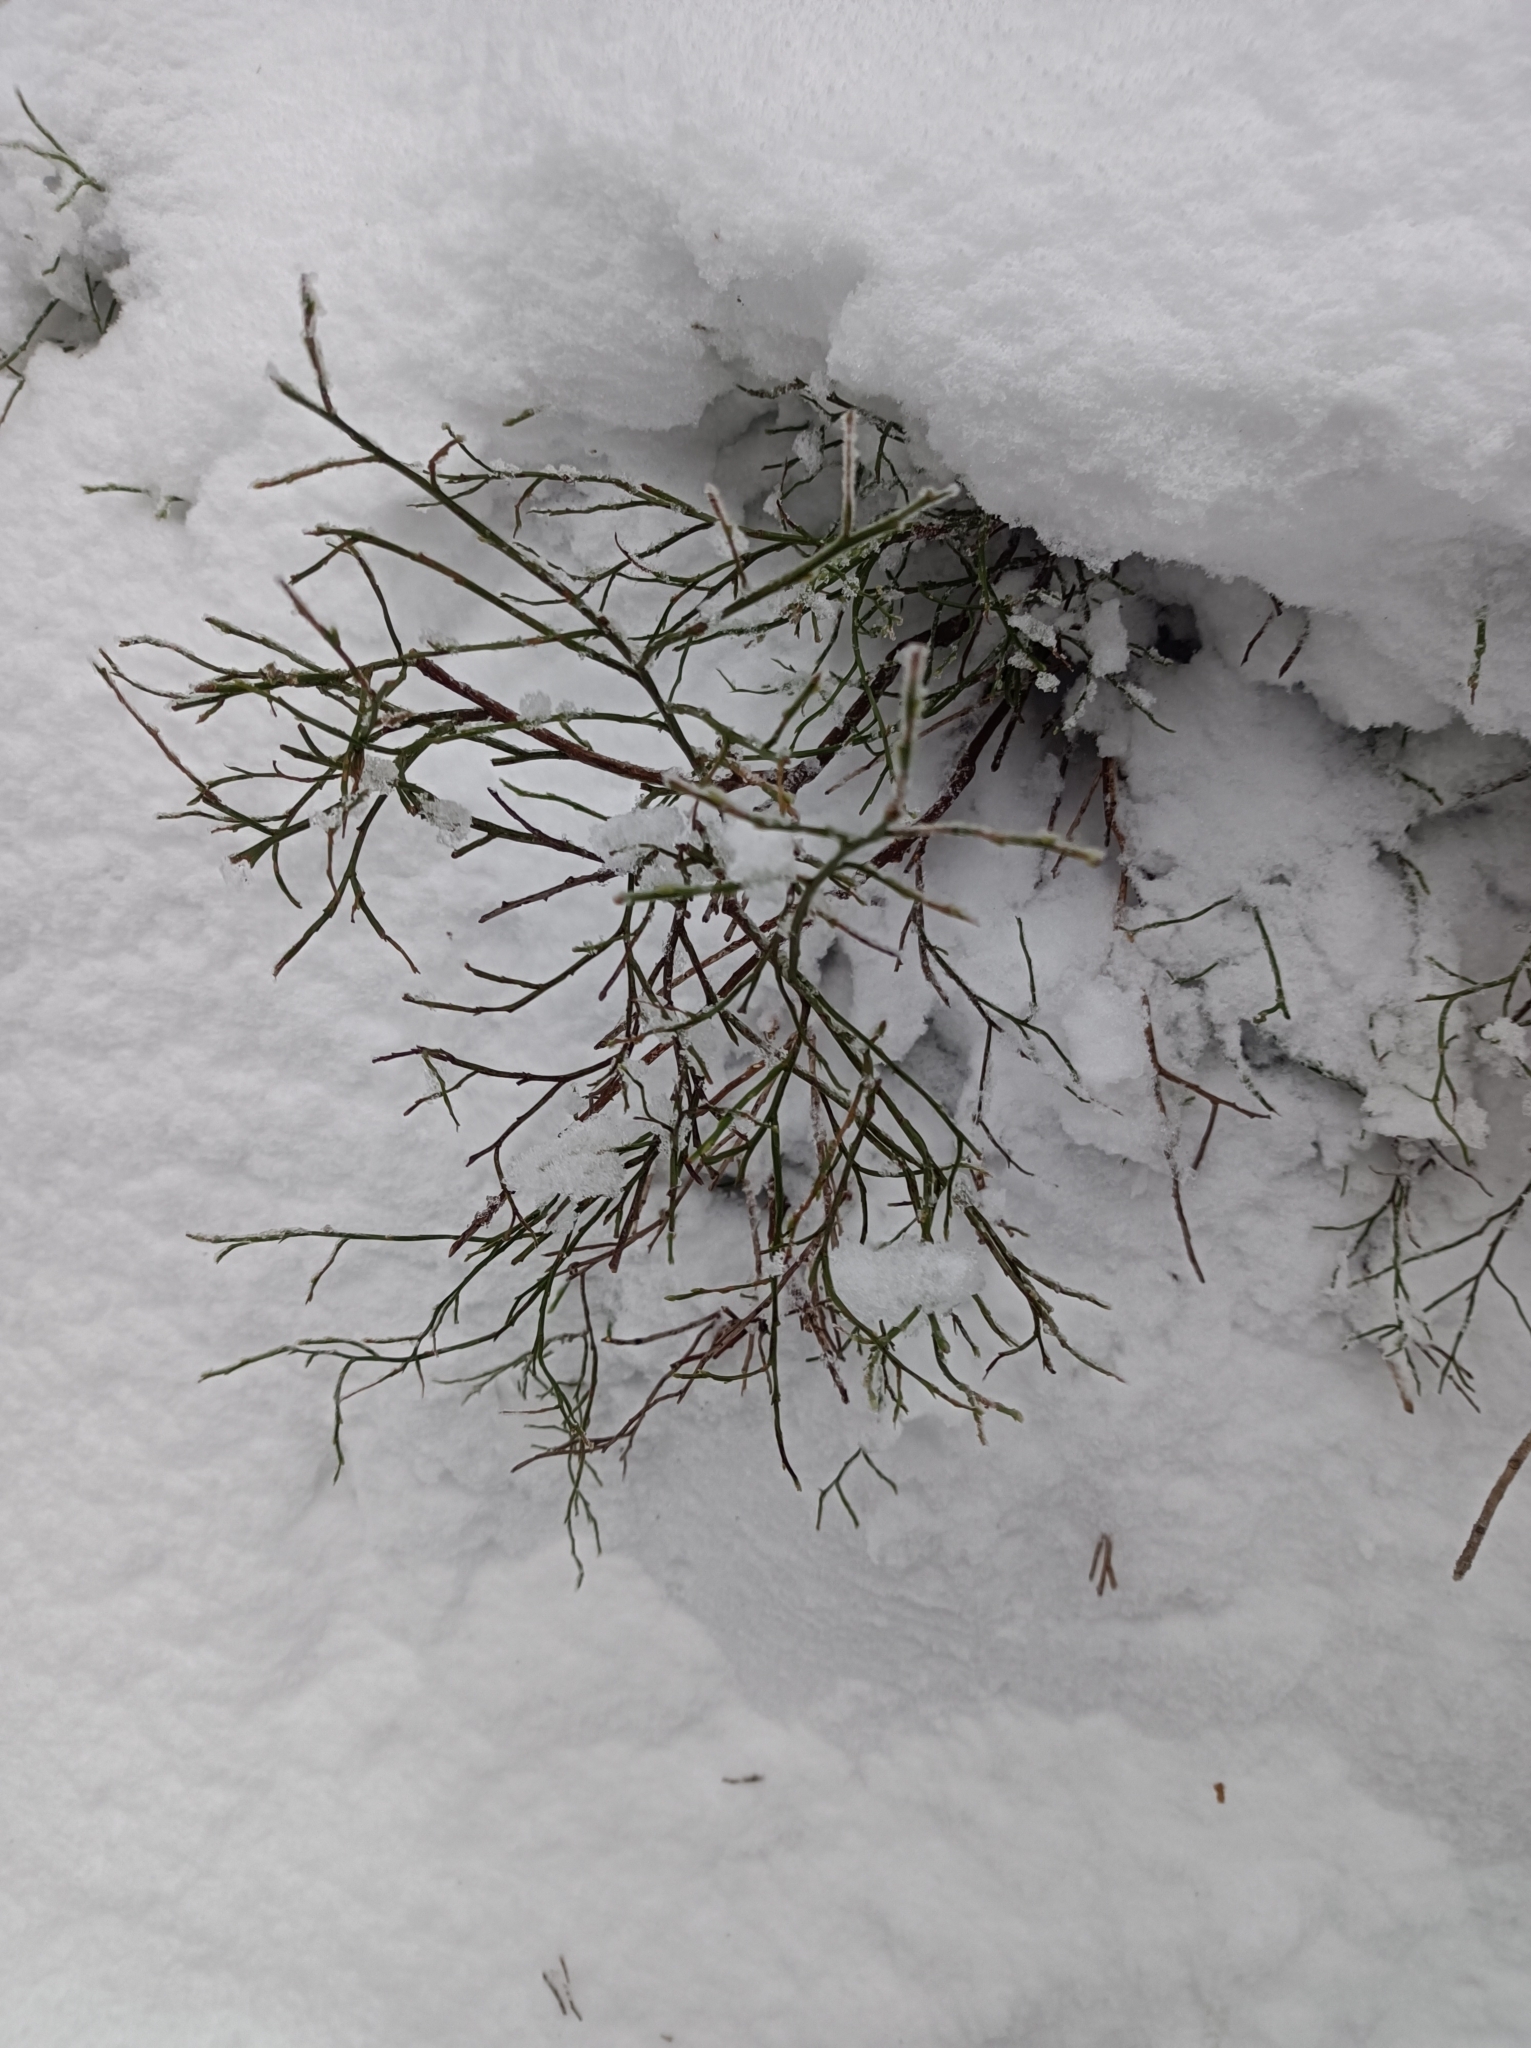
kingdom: Plantae
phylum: Tracheophyta
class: Magnoliopsida
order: Ericales
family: Ericaceae
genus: Vaccinium
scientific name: Vaccinium myrtillus
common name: Bilberry
